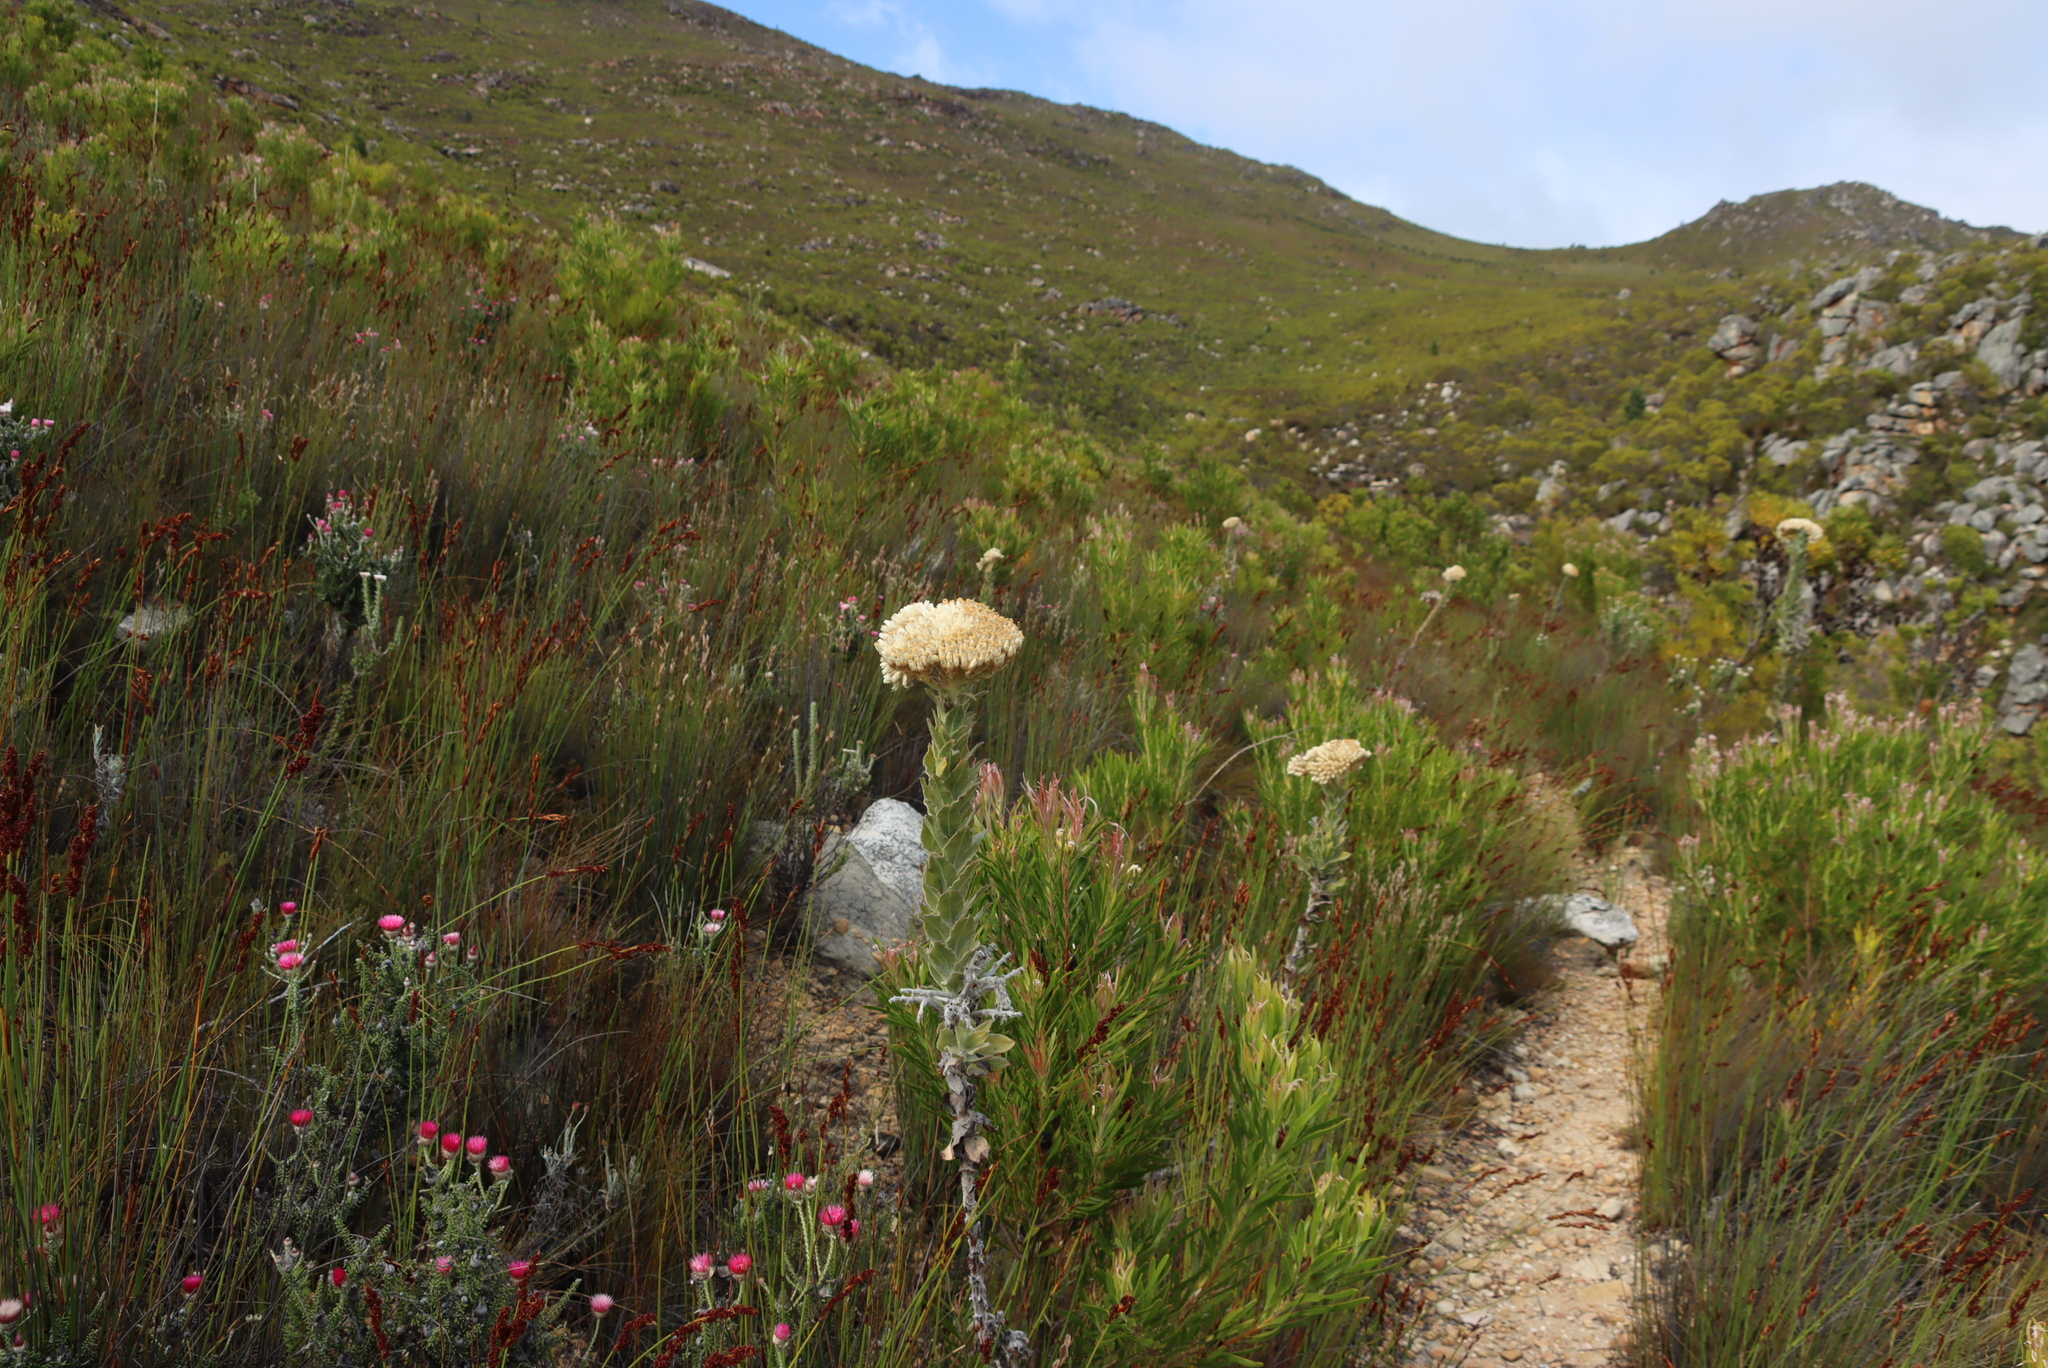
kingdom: Plantae
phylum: Tracheophyta
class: Magnoliopsida
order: Asterales
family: Asteraceae
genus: Syncarpha
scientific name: Syncarpha milleflora
